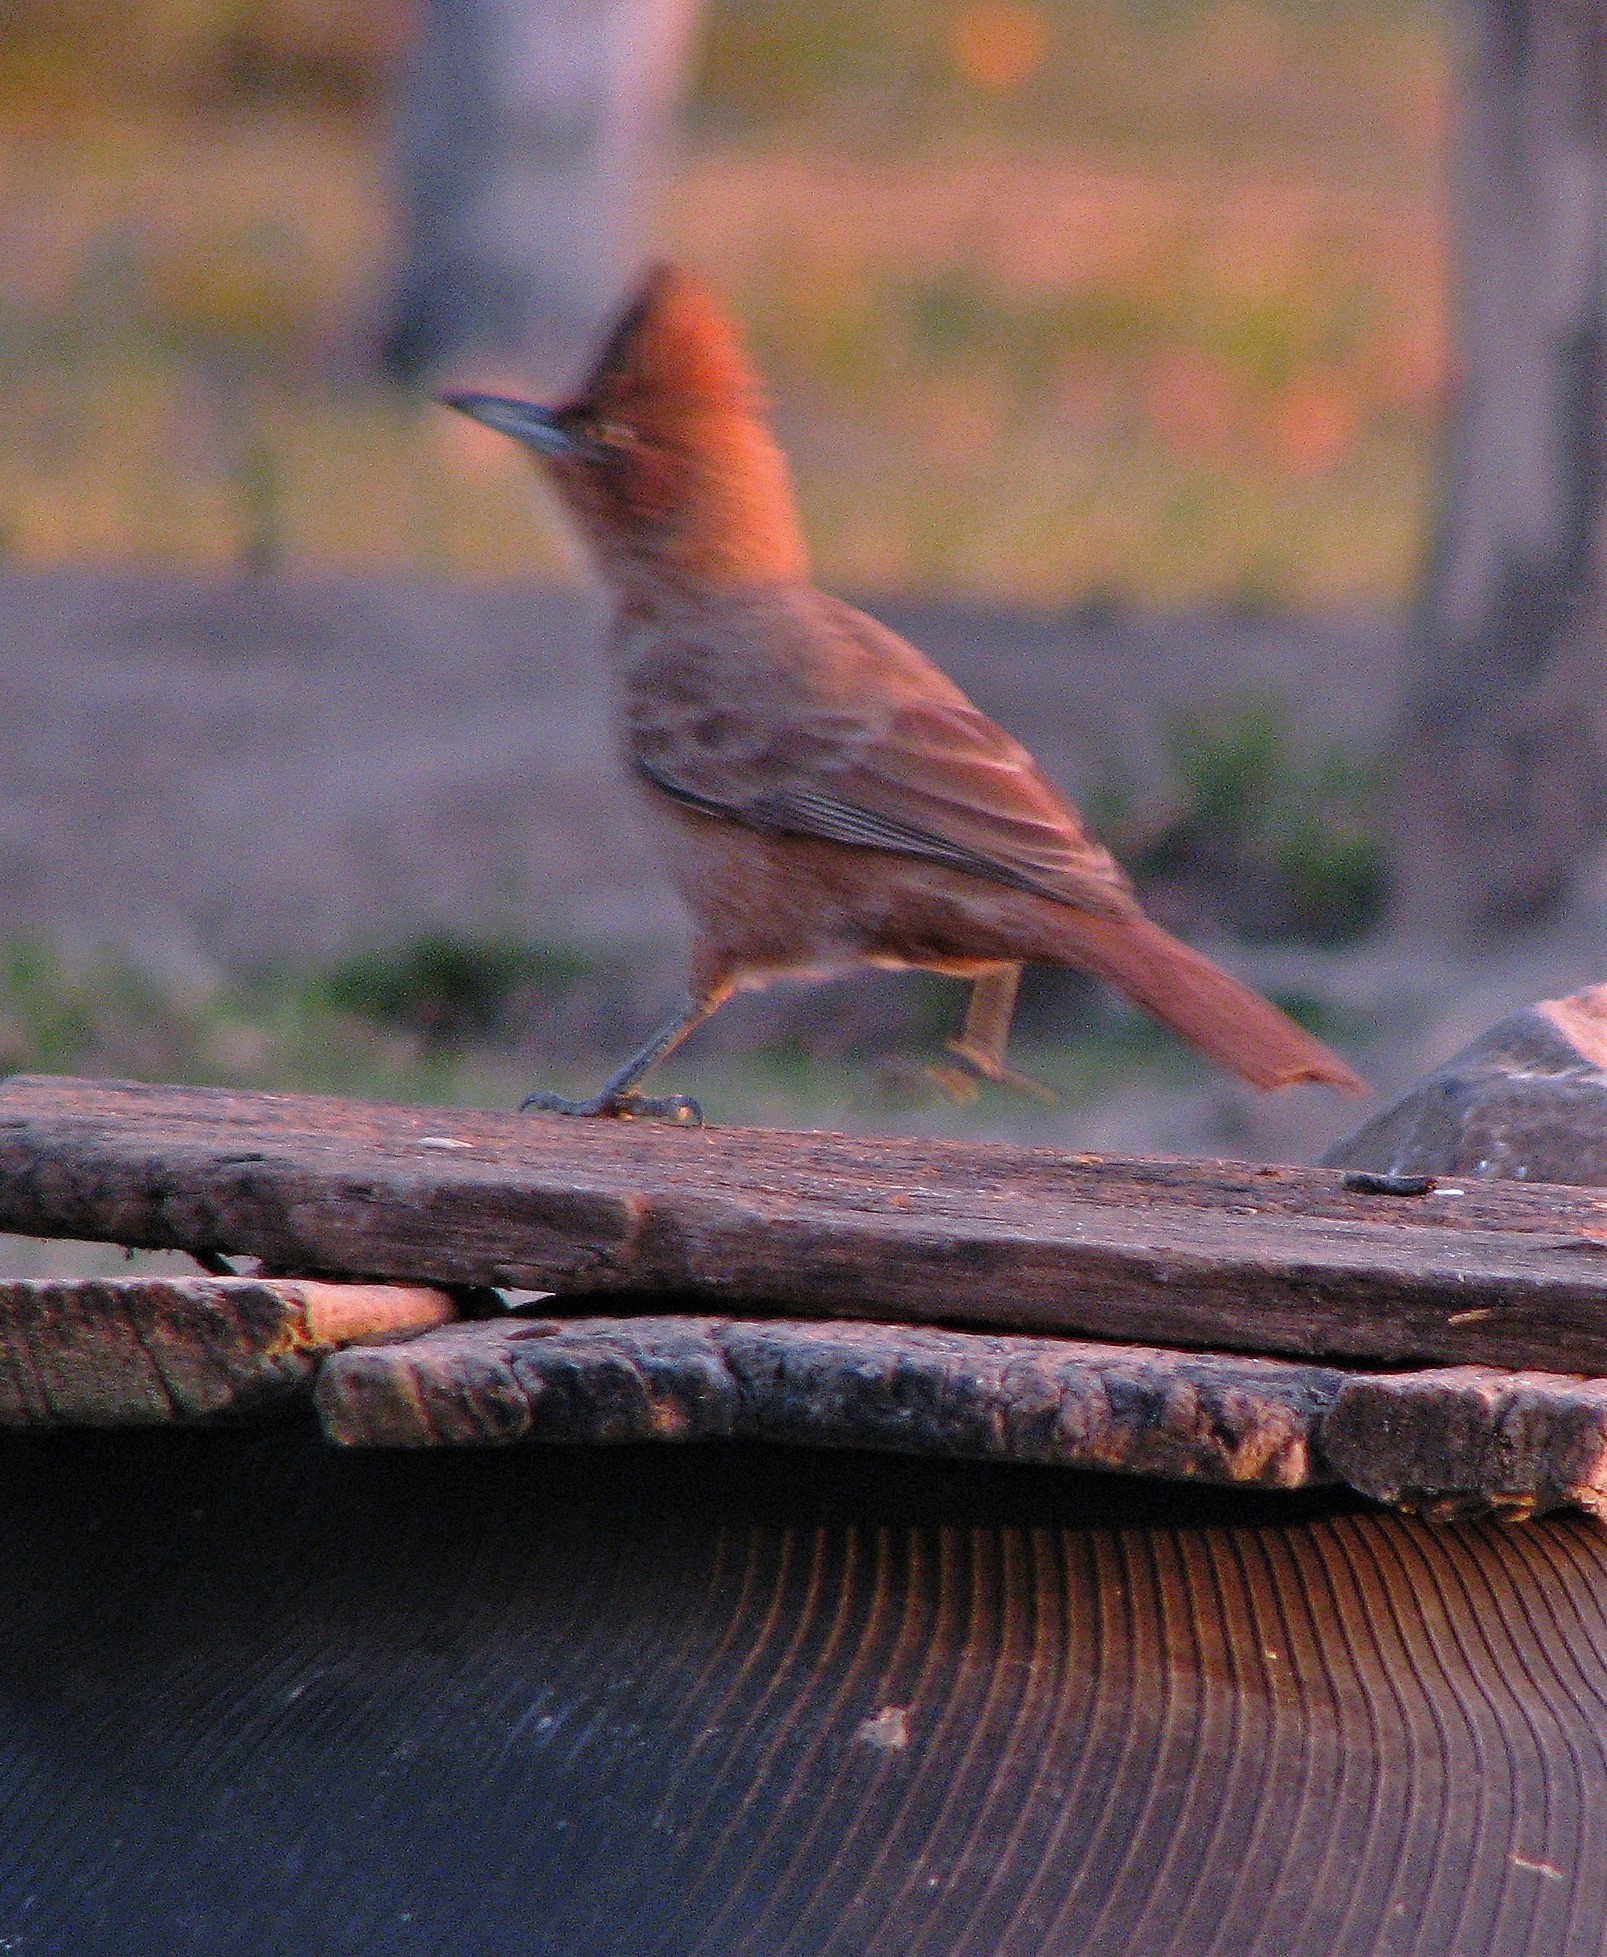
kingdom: Animalia
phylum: Chordata
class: Aves
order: Passeriformes
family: Furnariidae
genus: Pseudoseisura
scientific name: Pseudoseisura lophotes
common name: Brown cacholote
